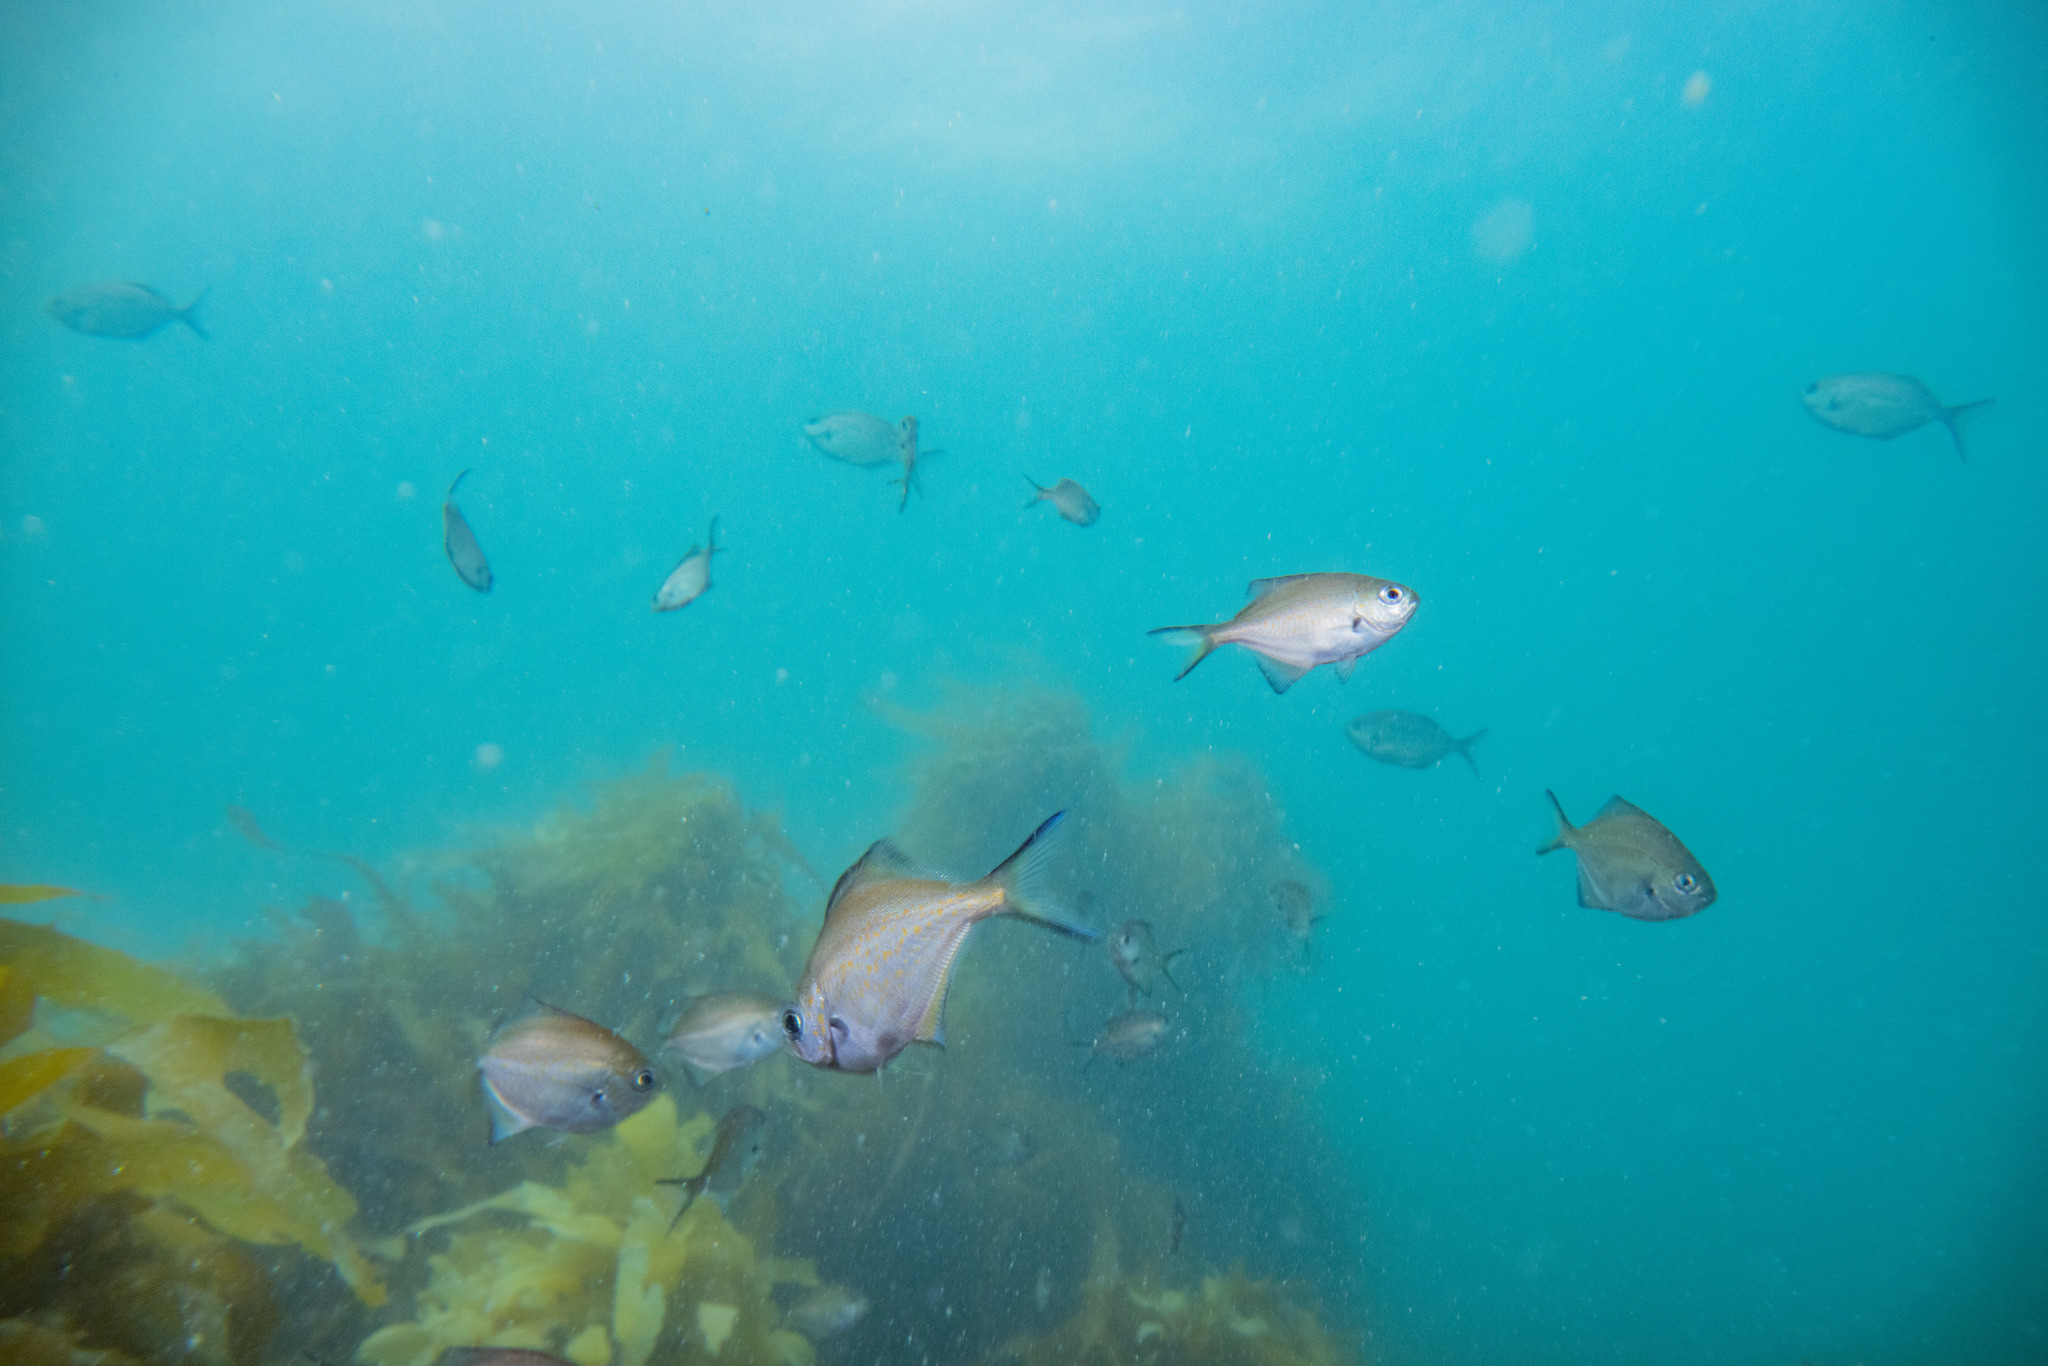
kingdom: Animalia
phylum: Chordata
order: Perciformes
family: Kyphosidae
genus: Scorpis
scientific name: Scorpis lineolata
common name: Sweep
